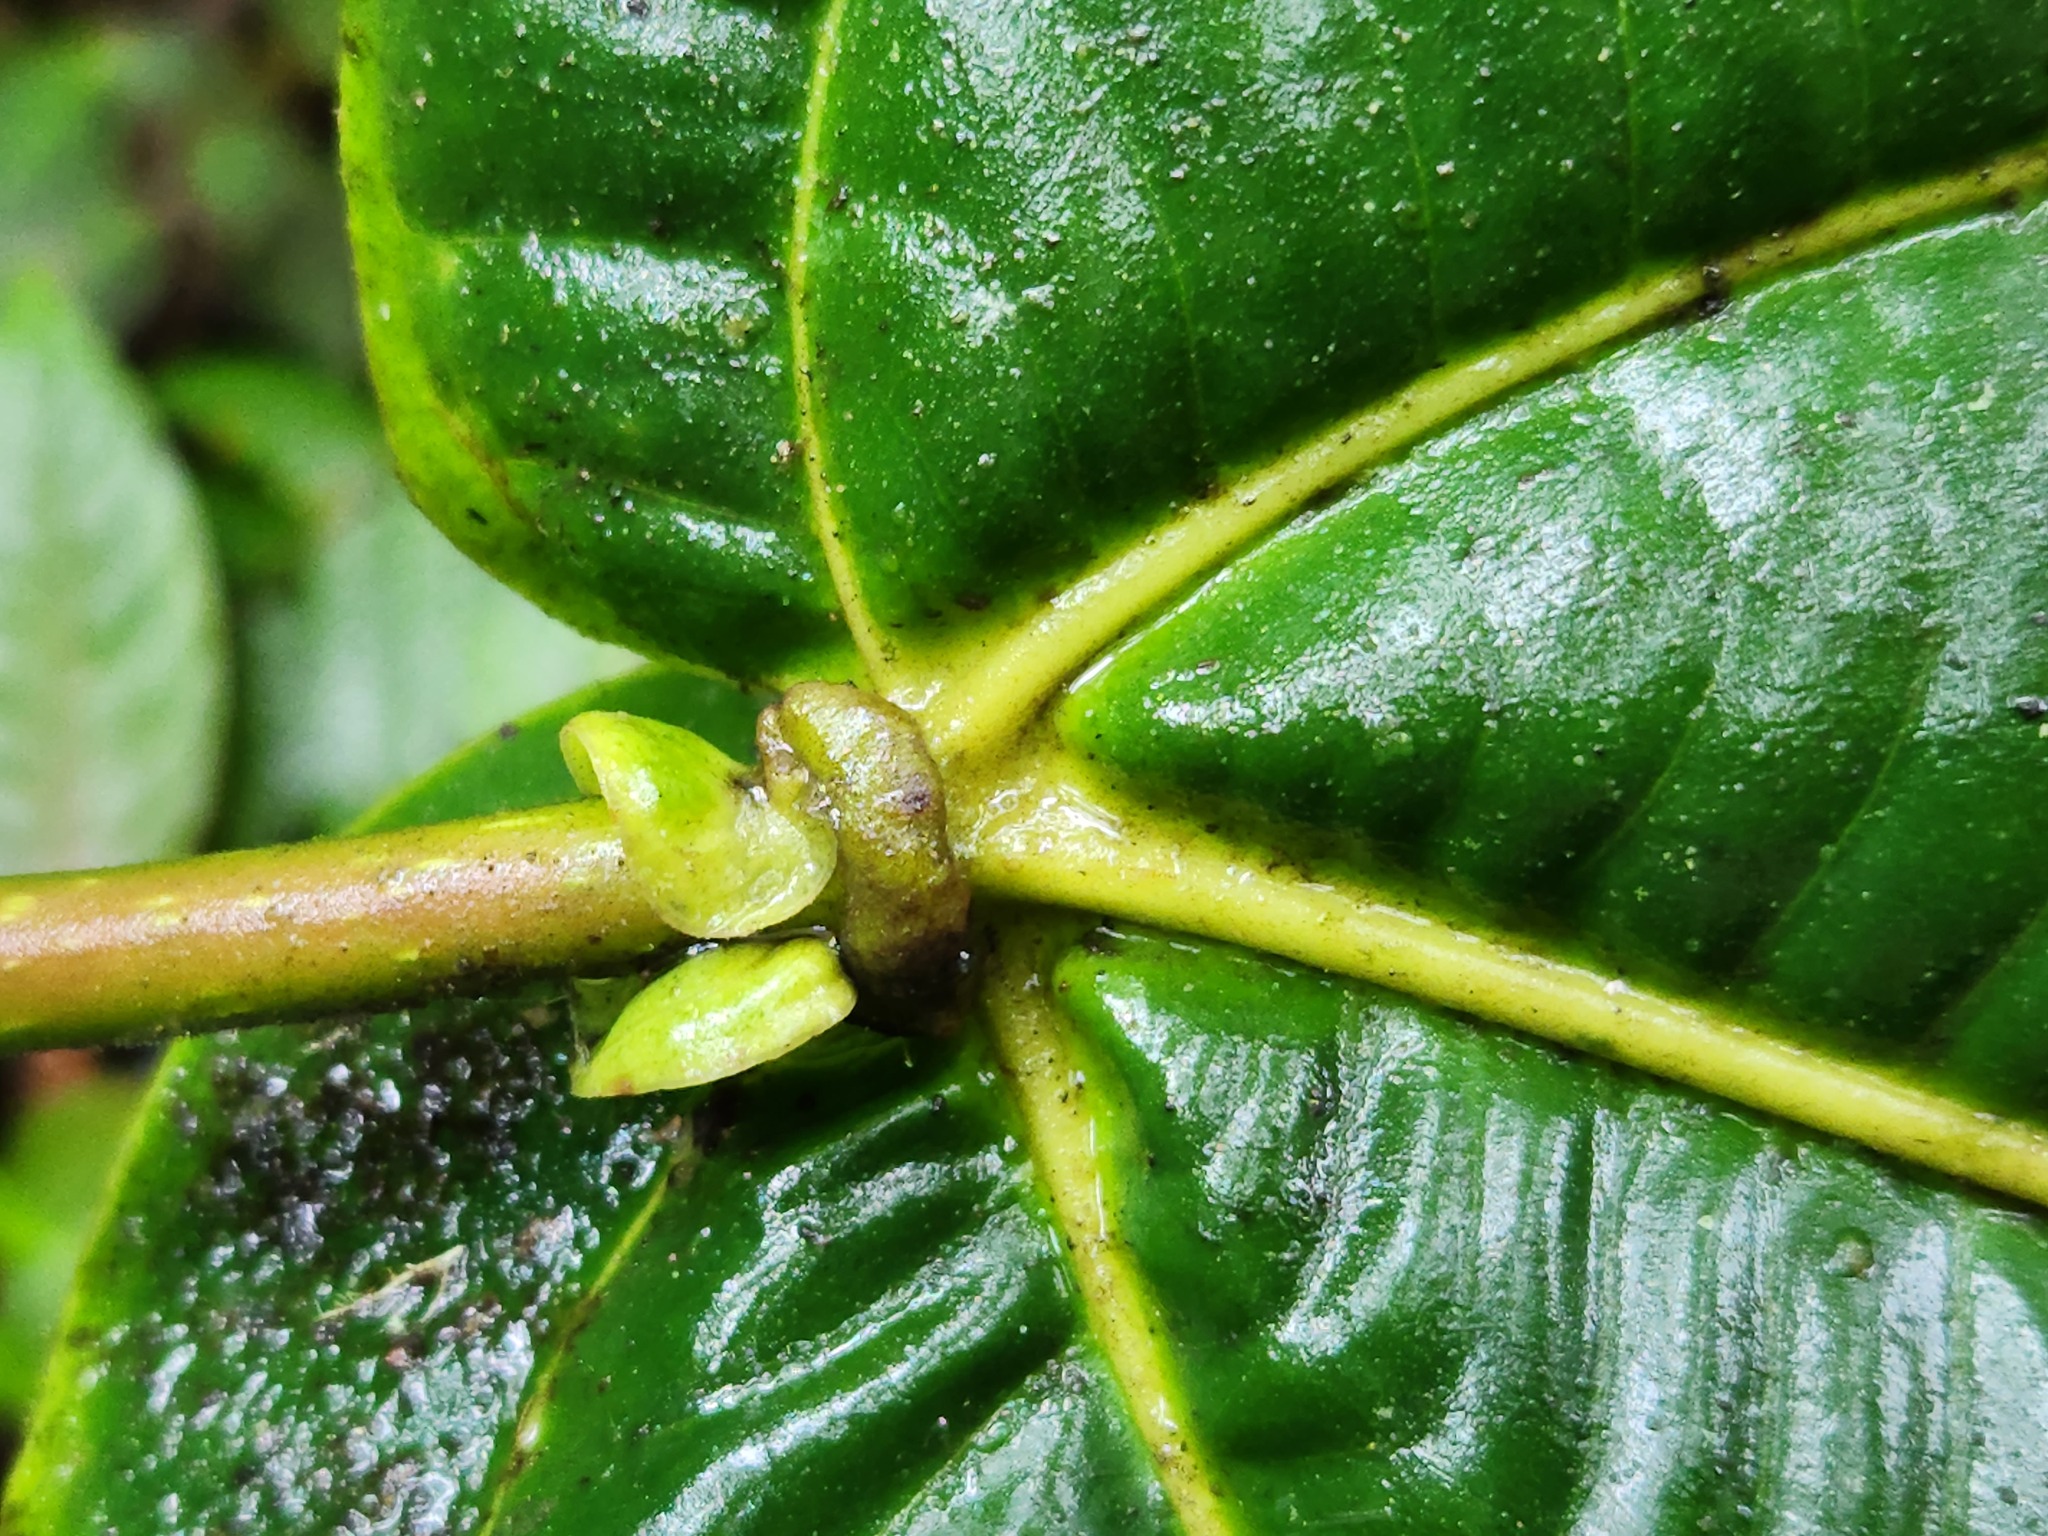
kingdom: Plantae
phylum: Tracheophyta
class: Magnoliopsida
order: Myrtales
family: Melastomataceae
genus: Meriania
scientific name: Meriania aurata
